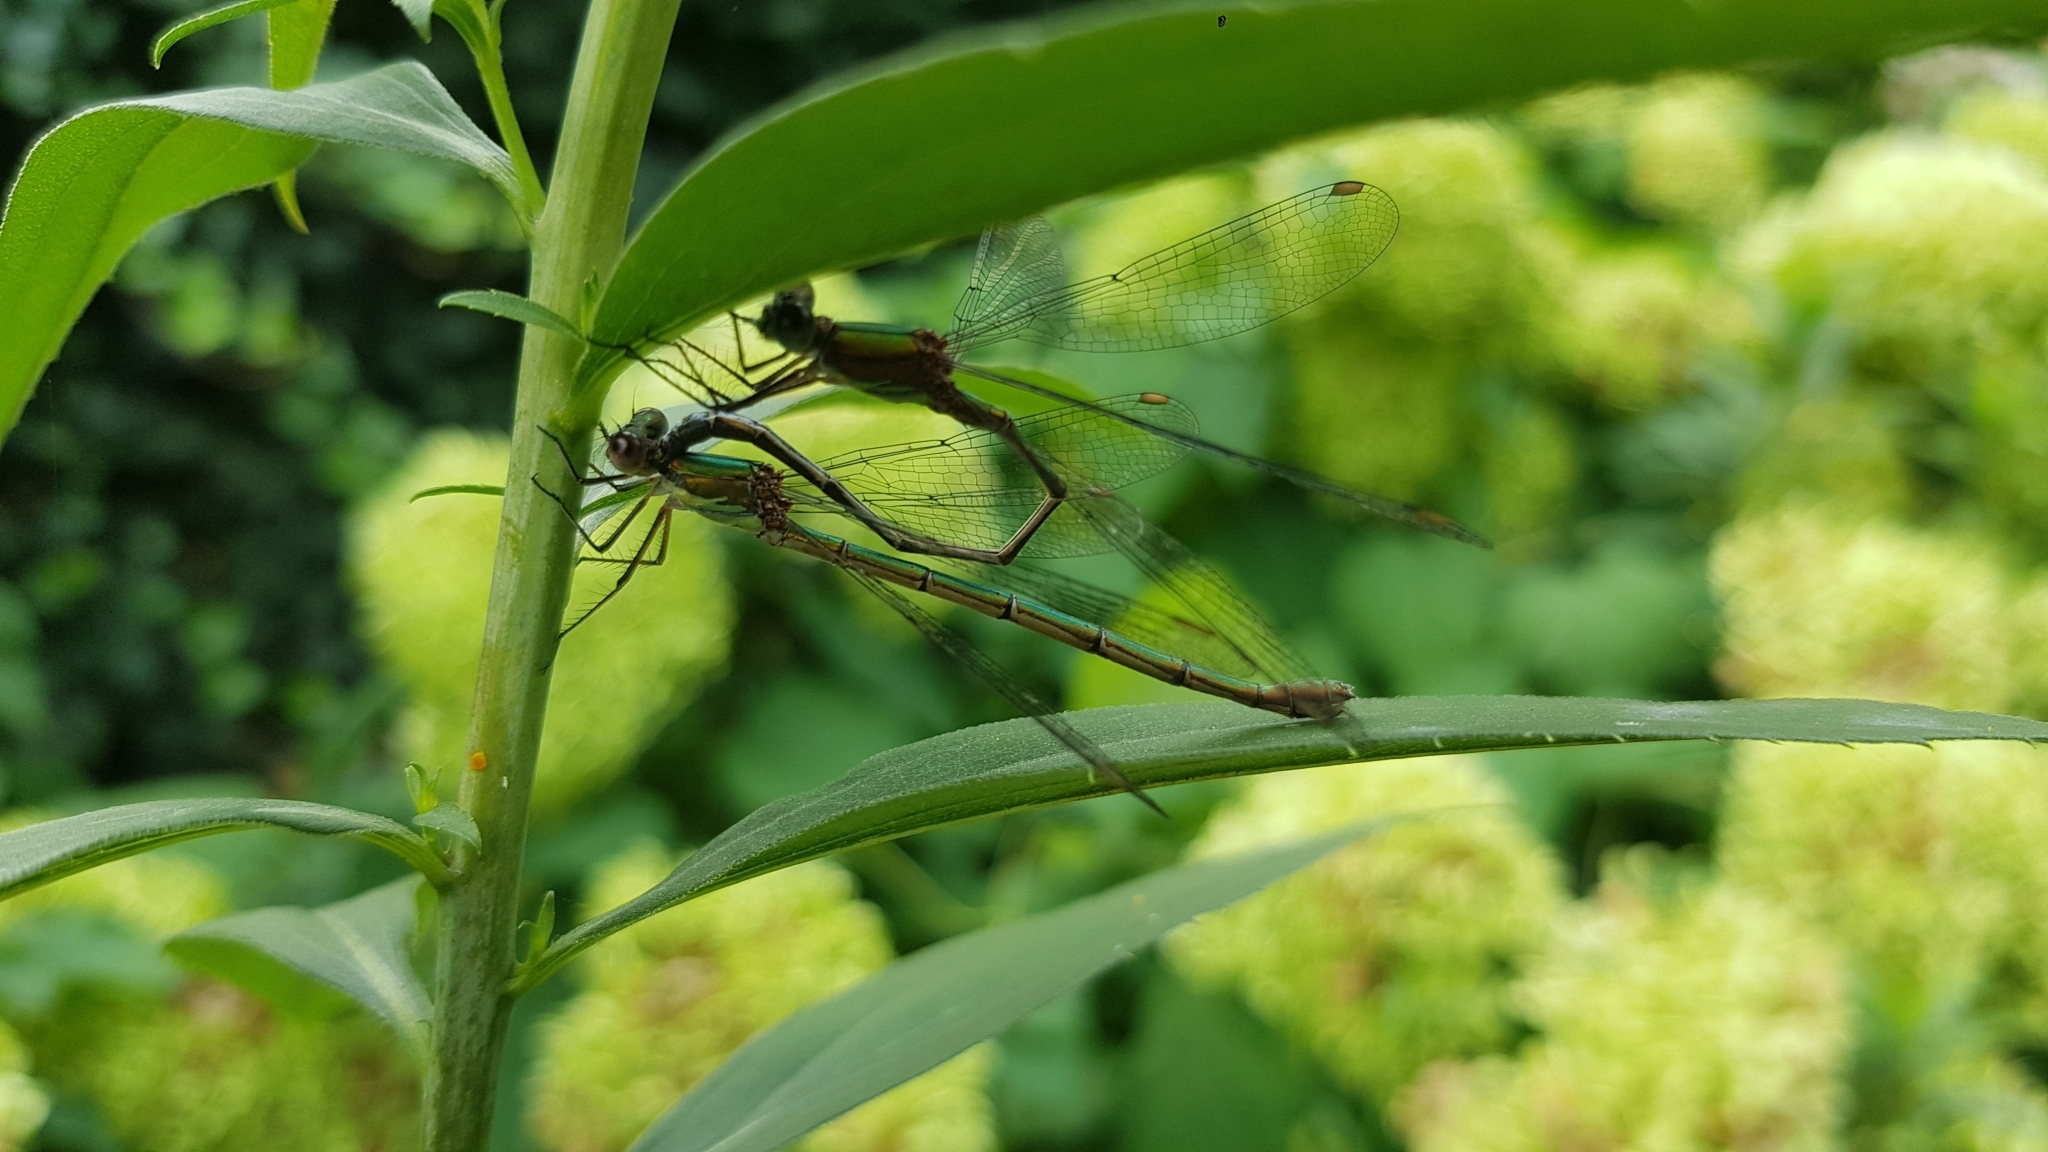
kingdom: Animalia
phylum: Arthropoda
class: Insecta
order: Odonata
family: Lestidae
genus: Chalcolestes
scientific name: Chalcolestes viridis
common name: Green emerald damselfly
